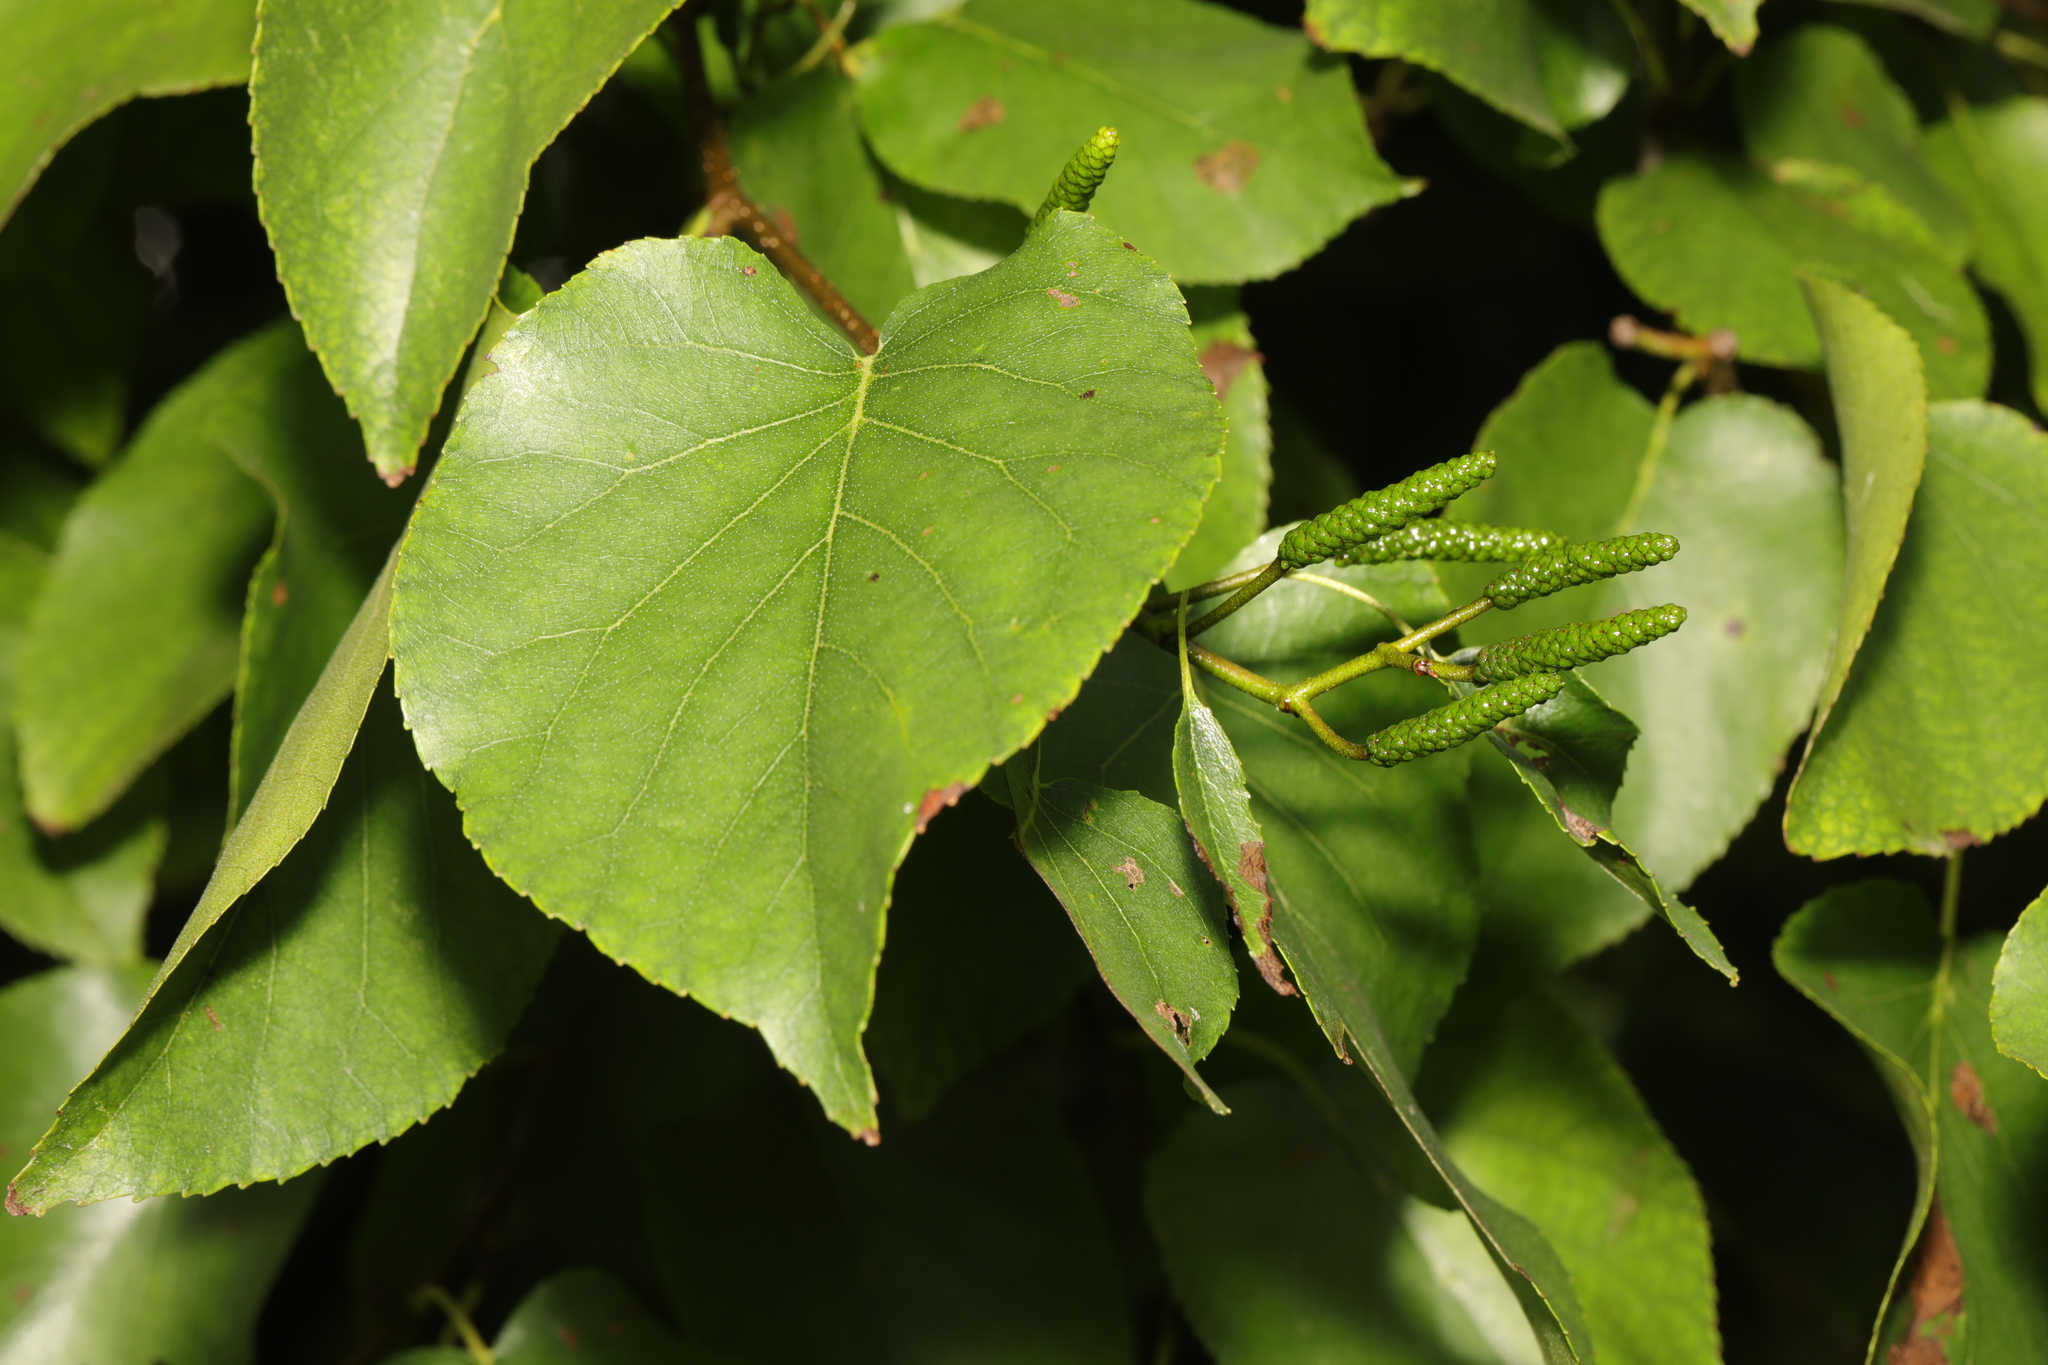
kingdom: Plantae
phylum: Tracheophyta
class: Magnoliopsida
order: Fagales
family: Betulaceae
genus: Alnus
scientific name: Alnus cordata
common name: Italian alder
